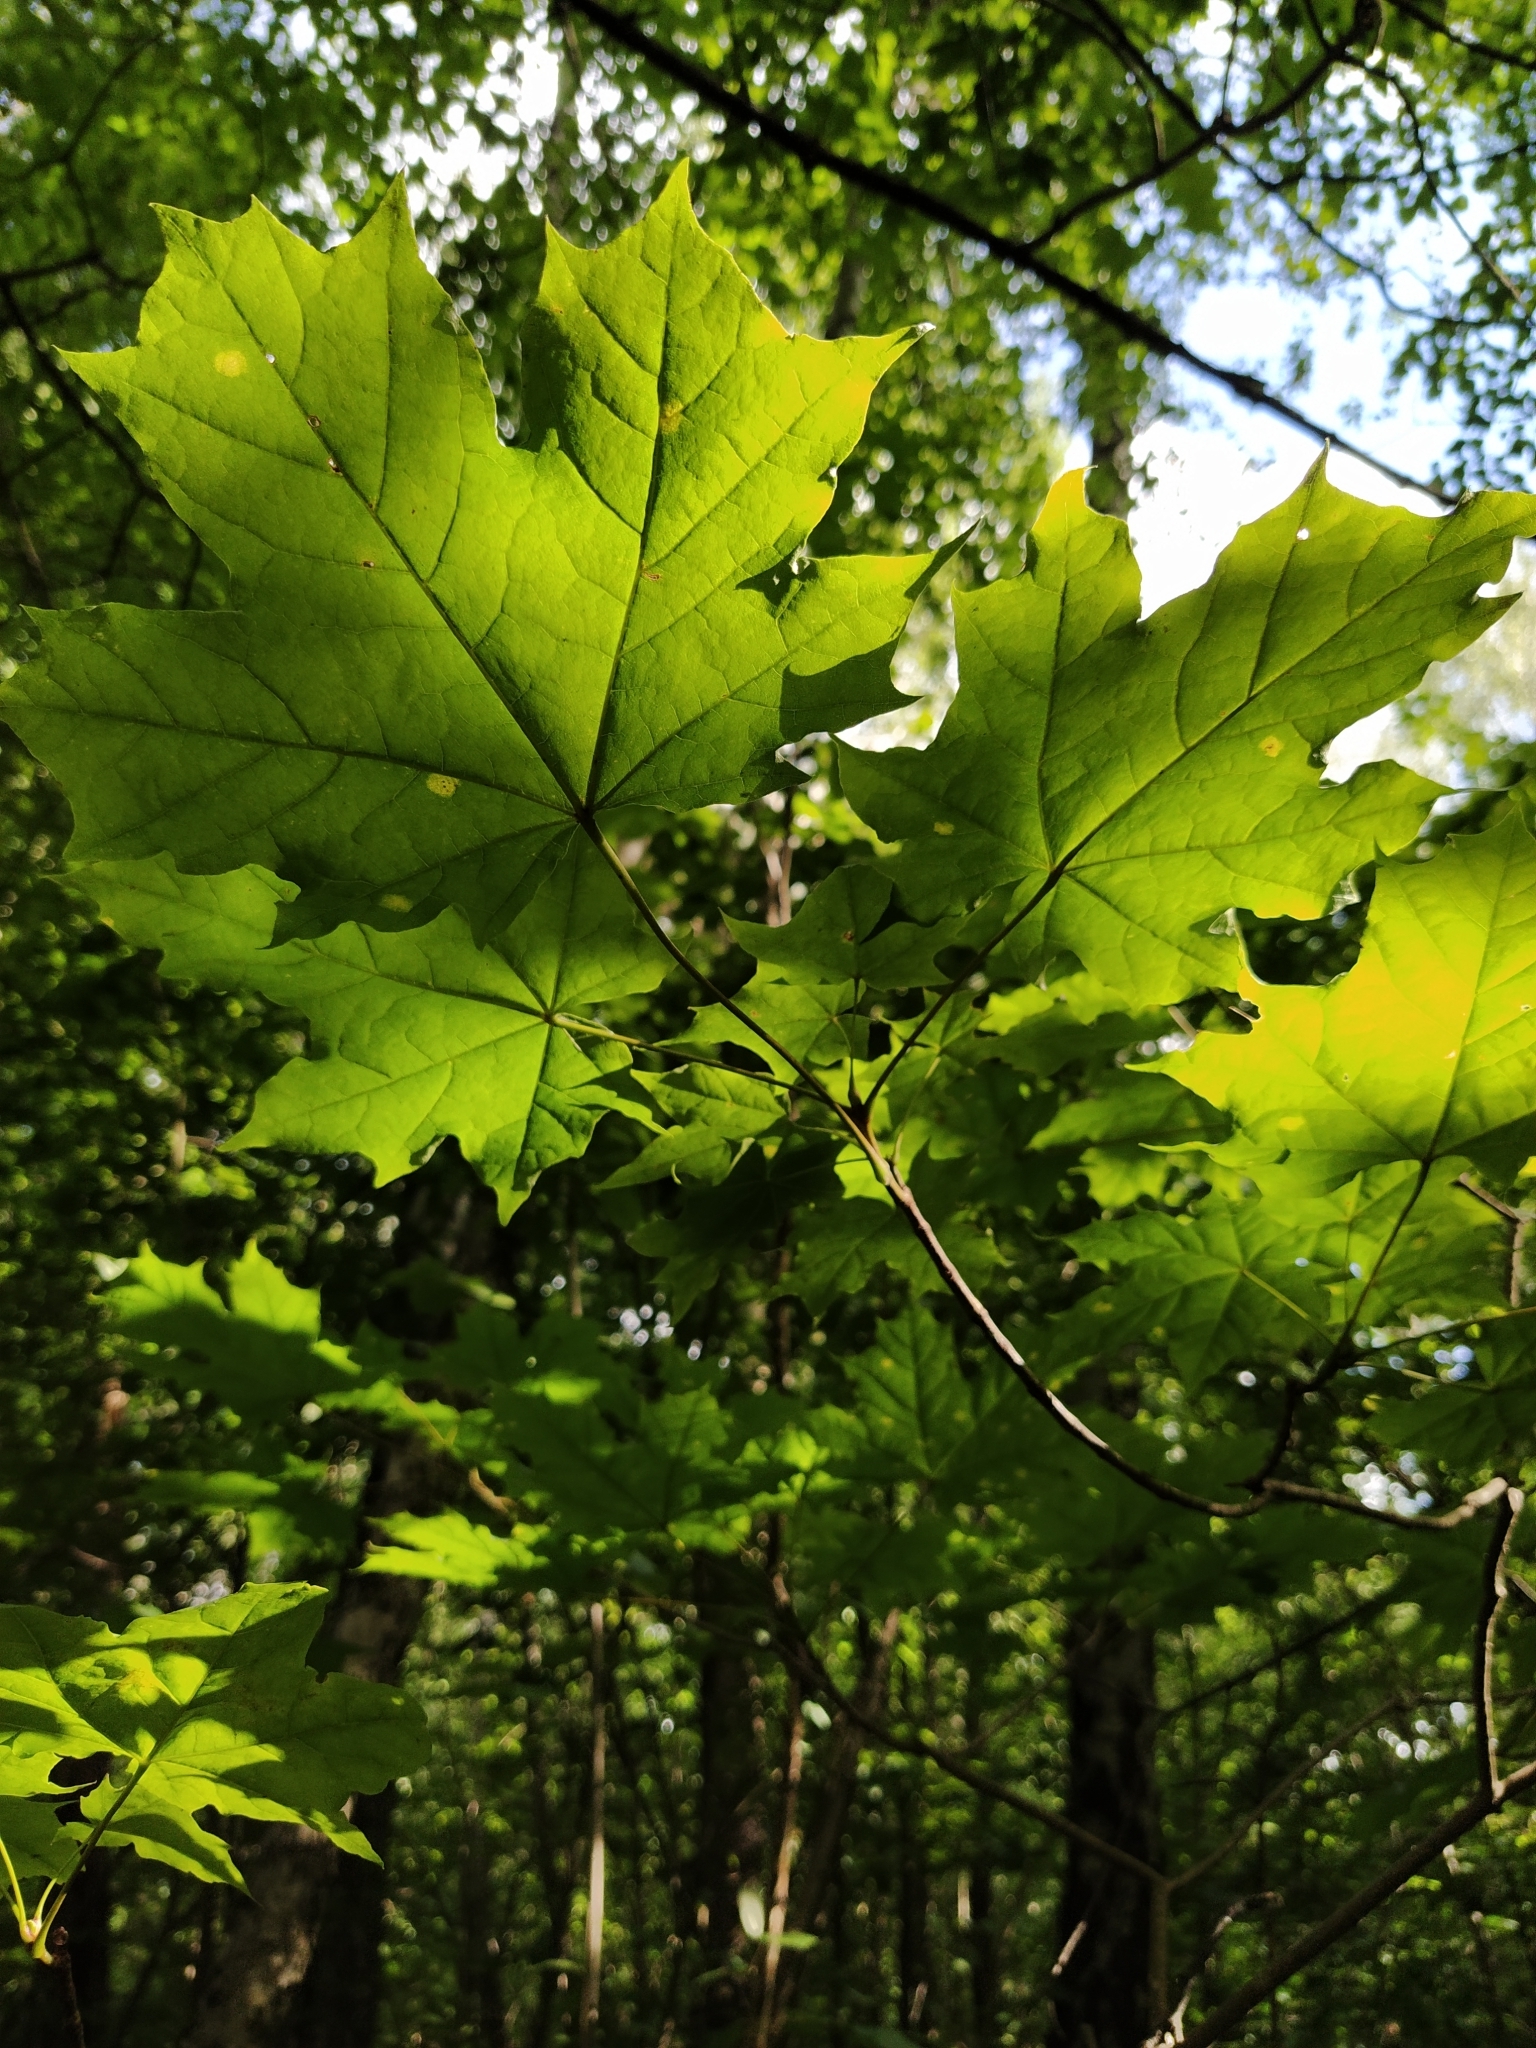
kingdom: Plantae
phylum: Tracheophyta
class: Magnoliopsida
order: Sapindales
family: Sapindaceae
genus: Acer
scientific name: Acer platanoides
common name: Norway maple
